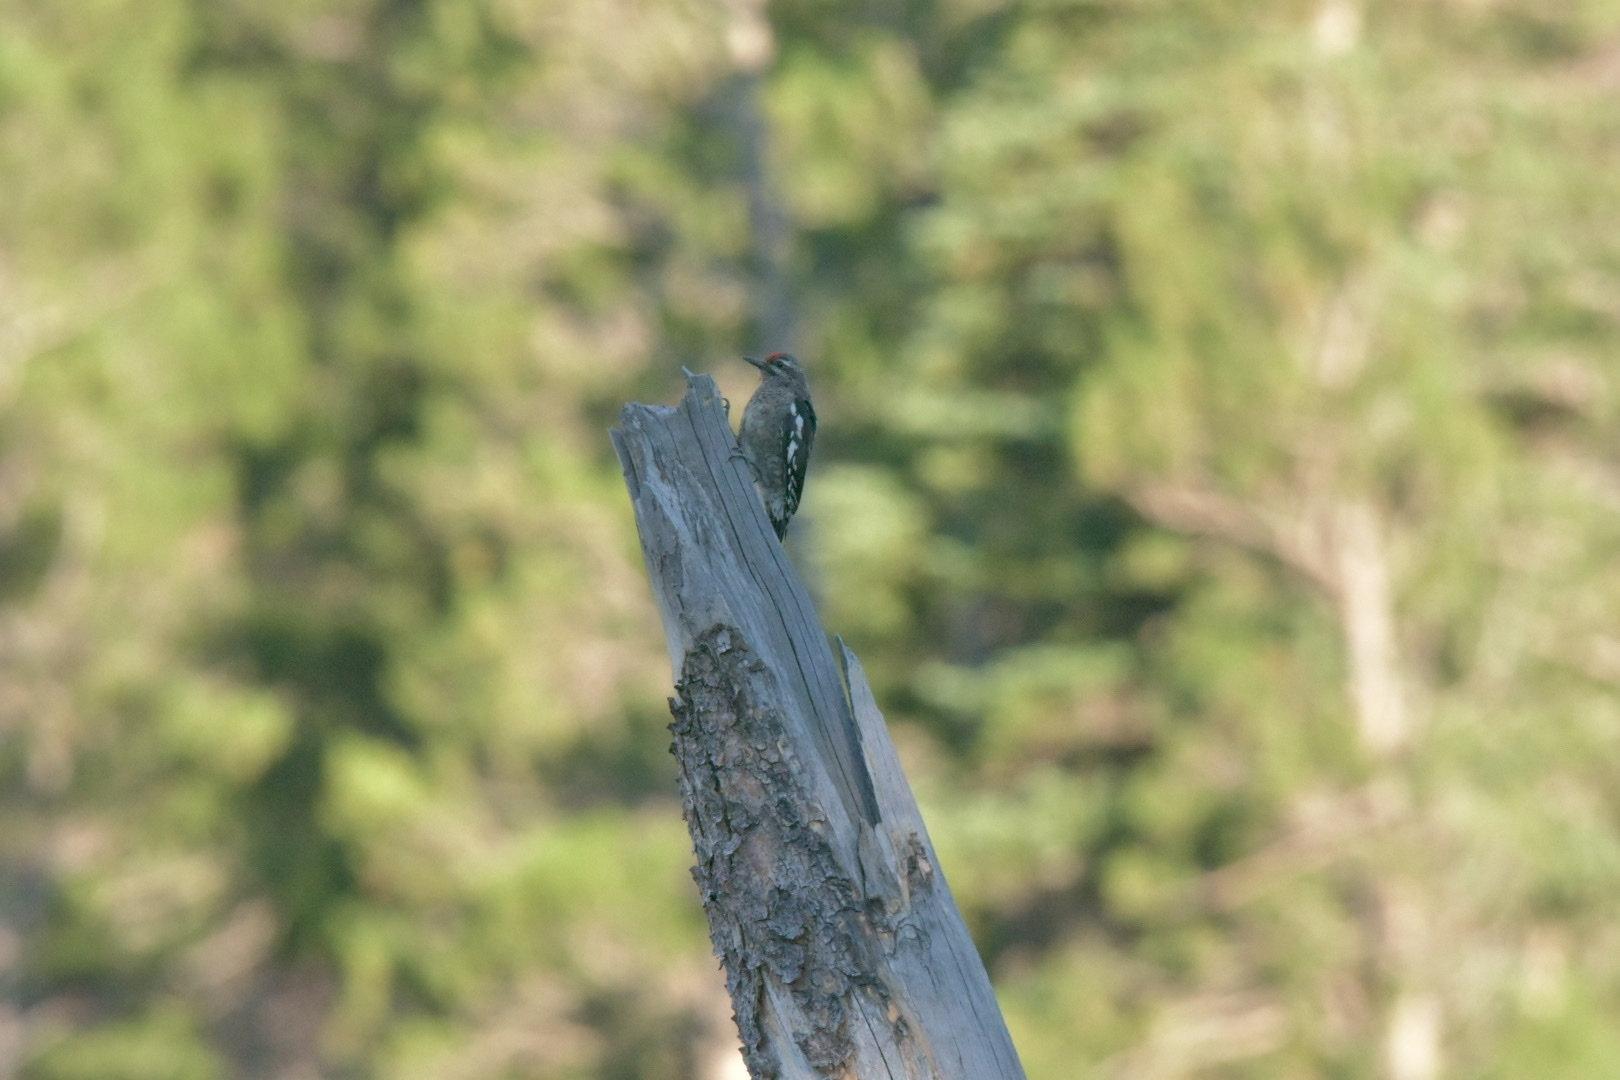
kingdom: Animalia
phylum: Chordata
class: Aves
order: Piciformes
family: Picidae
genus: Sphyrapicus
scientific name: Sphyrapicus varius
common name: Yellow-bellied sapsucker
